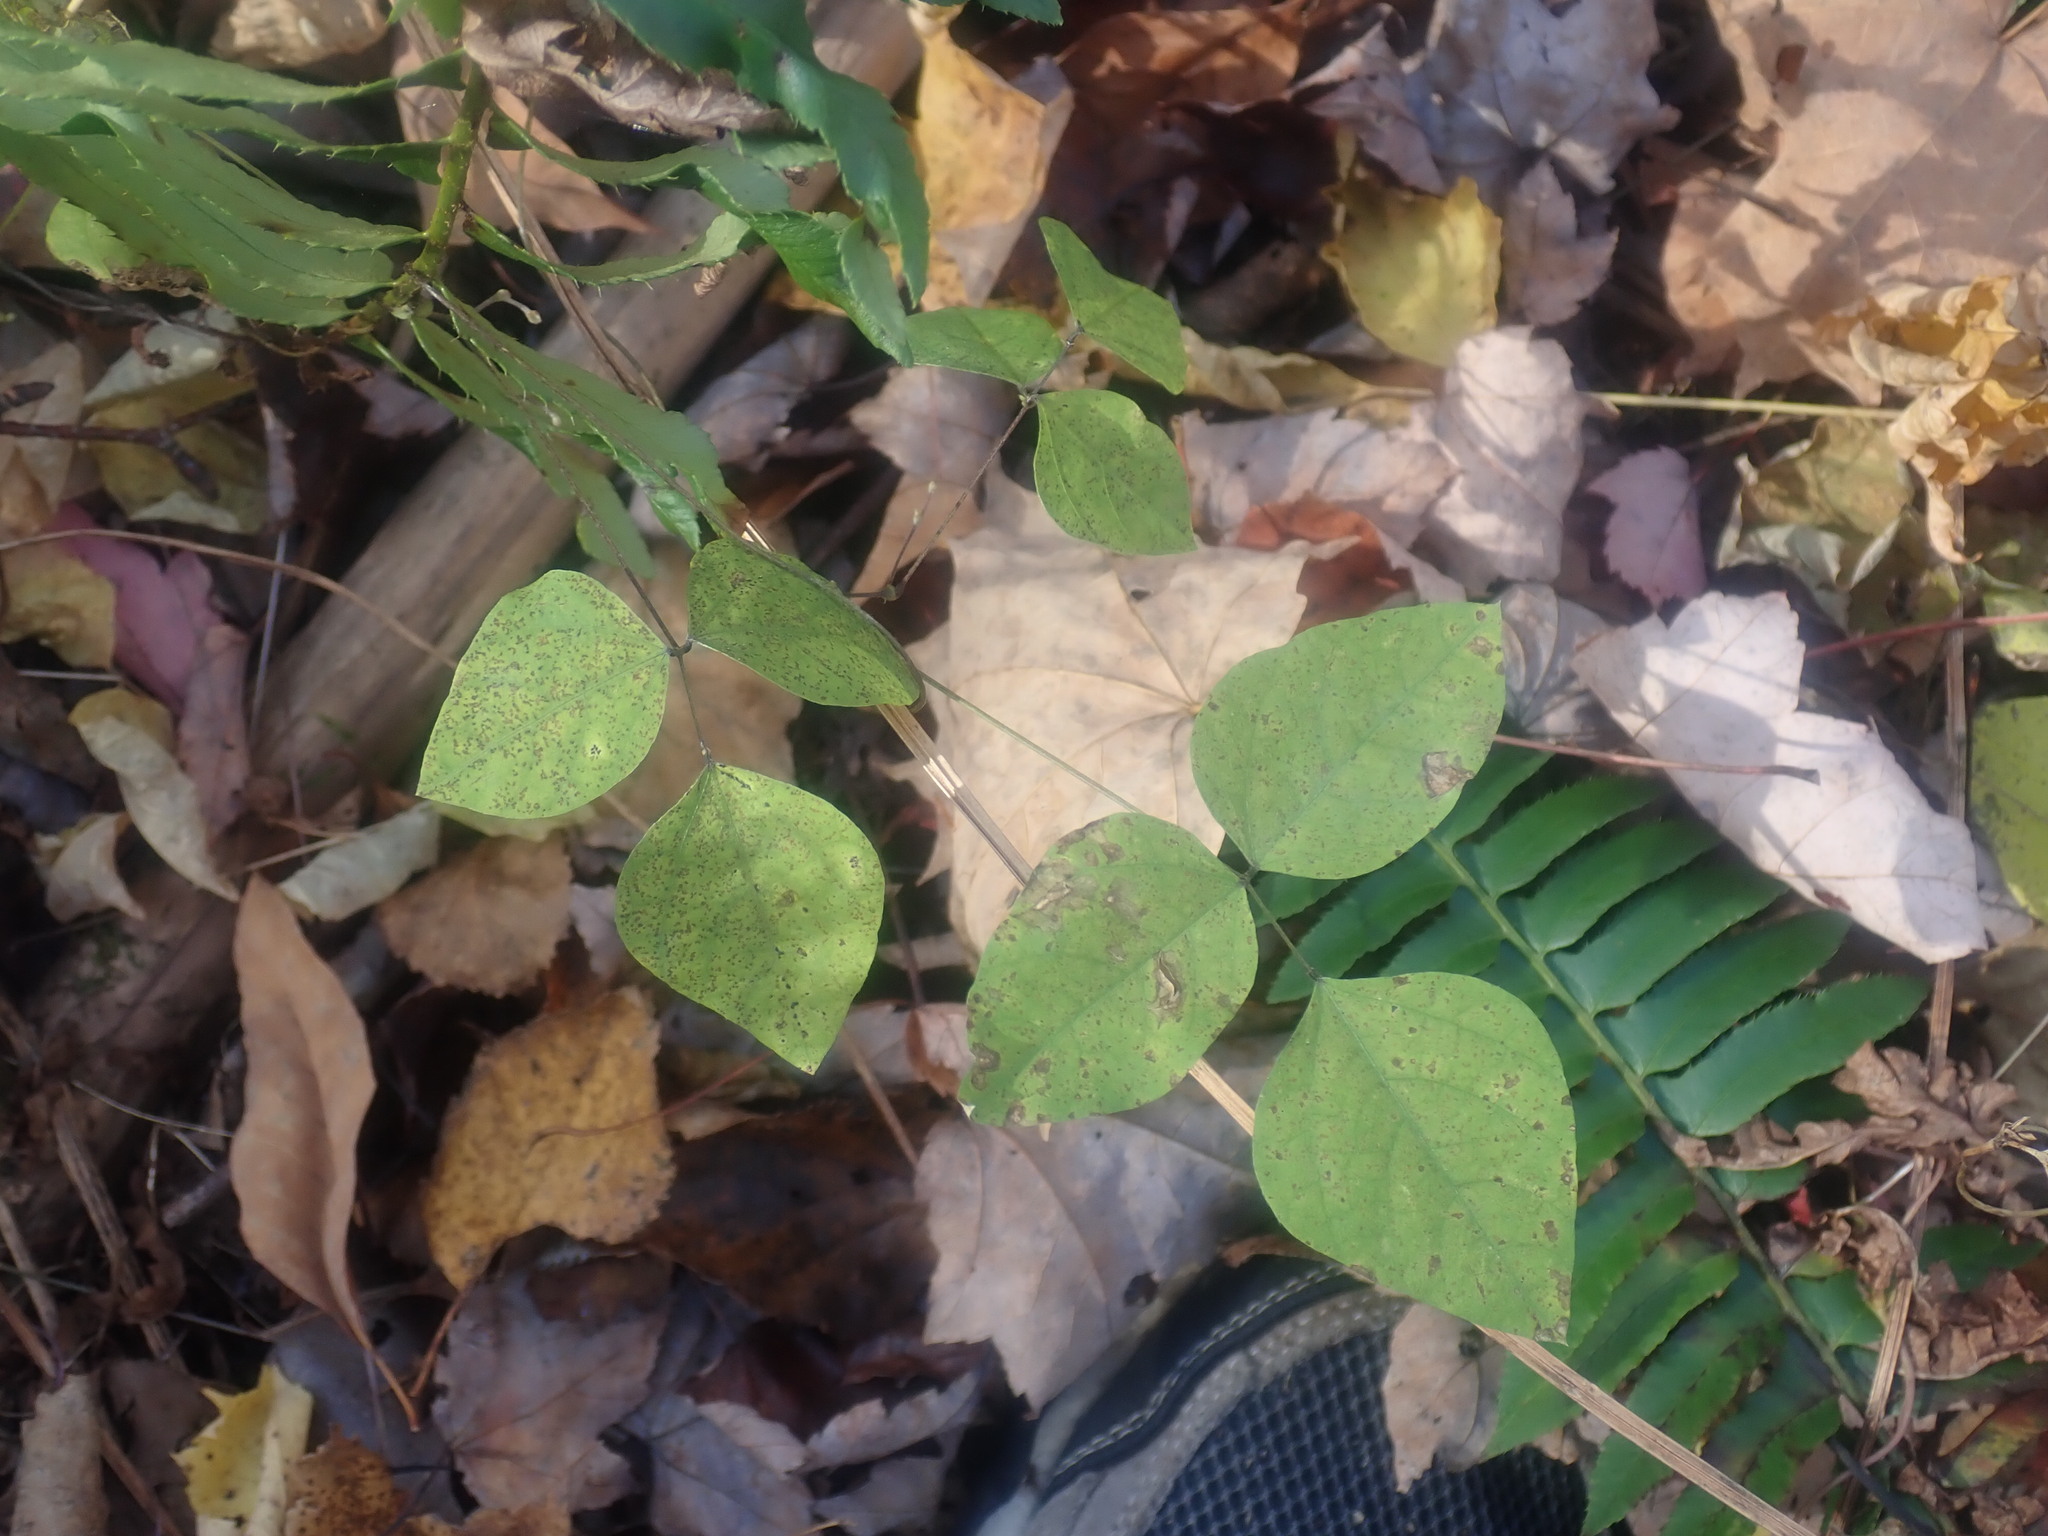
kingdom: Plantae
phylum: Tracheophyta
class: Magnoliopsida
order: Fabales
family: Fabaceae
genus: Amphicarpaea
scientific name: Amphicarpaea bracteata
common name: American hog peanut
